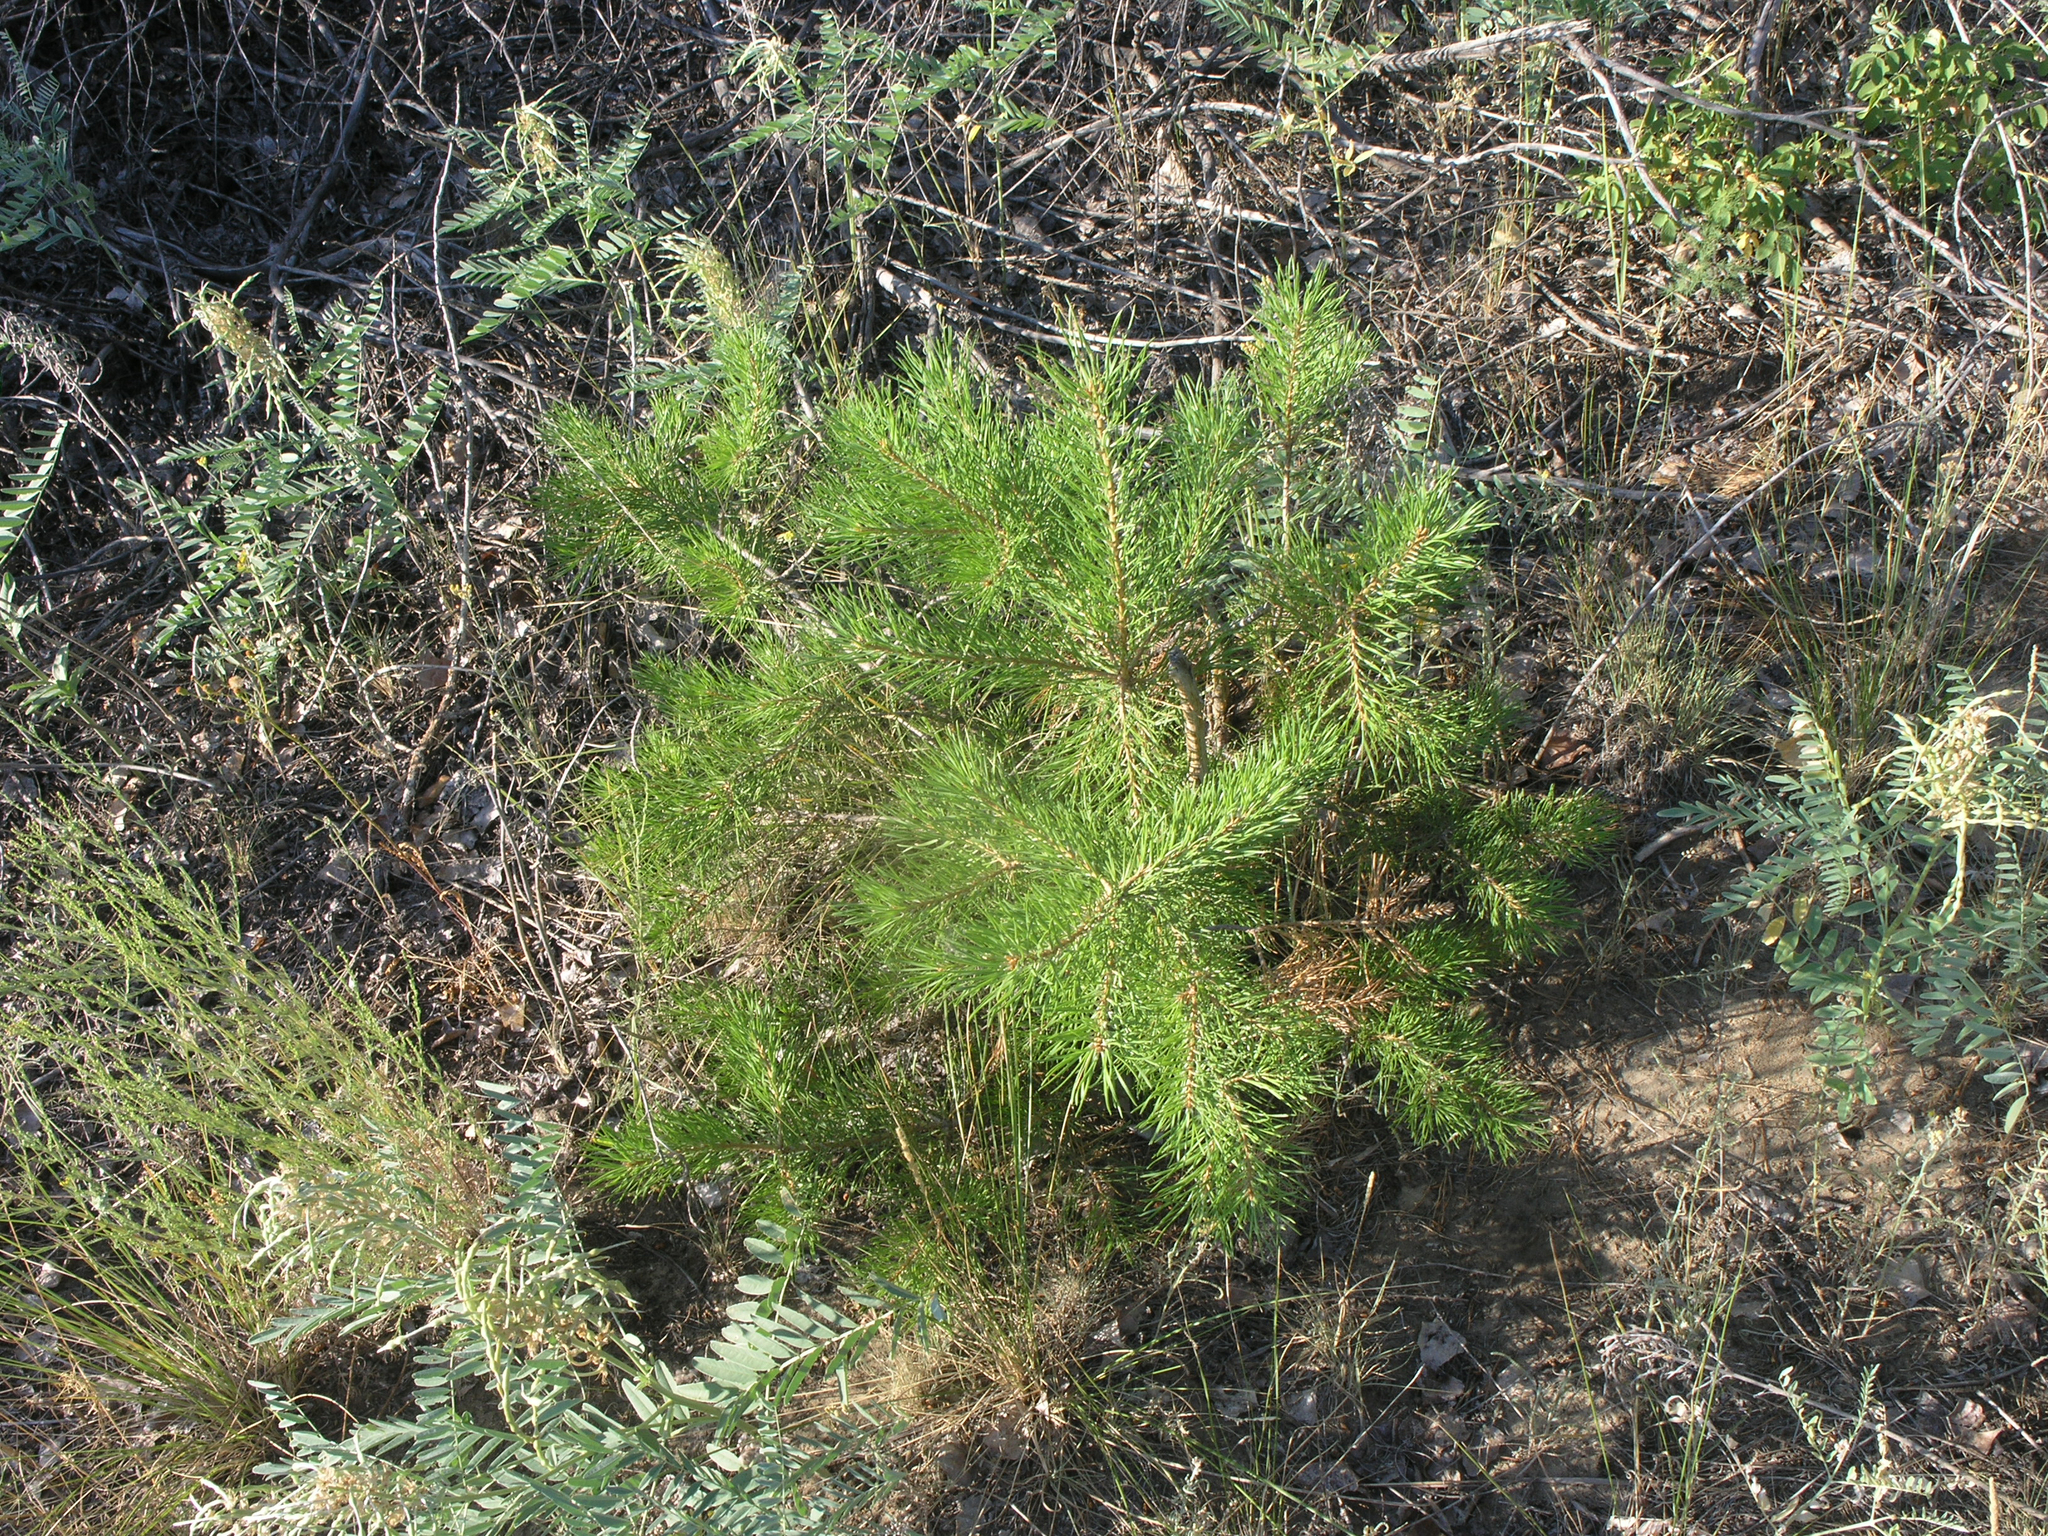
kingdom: Plantae
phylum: Tracheophyta
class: Pinopsida
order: Pinales
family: Pinaceae
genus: Pinus
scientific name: Pinus sylvestris
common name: Scots pine
